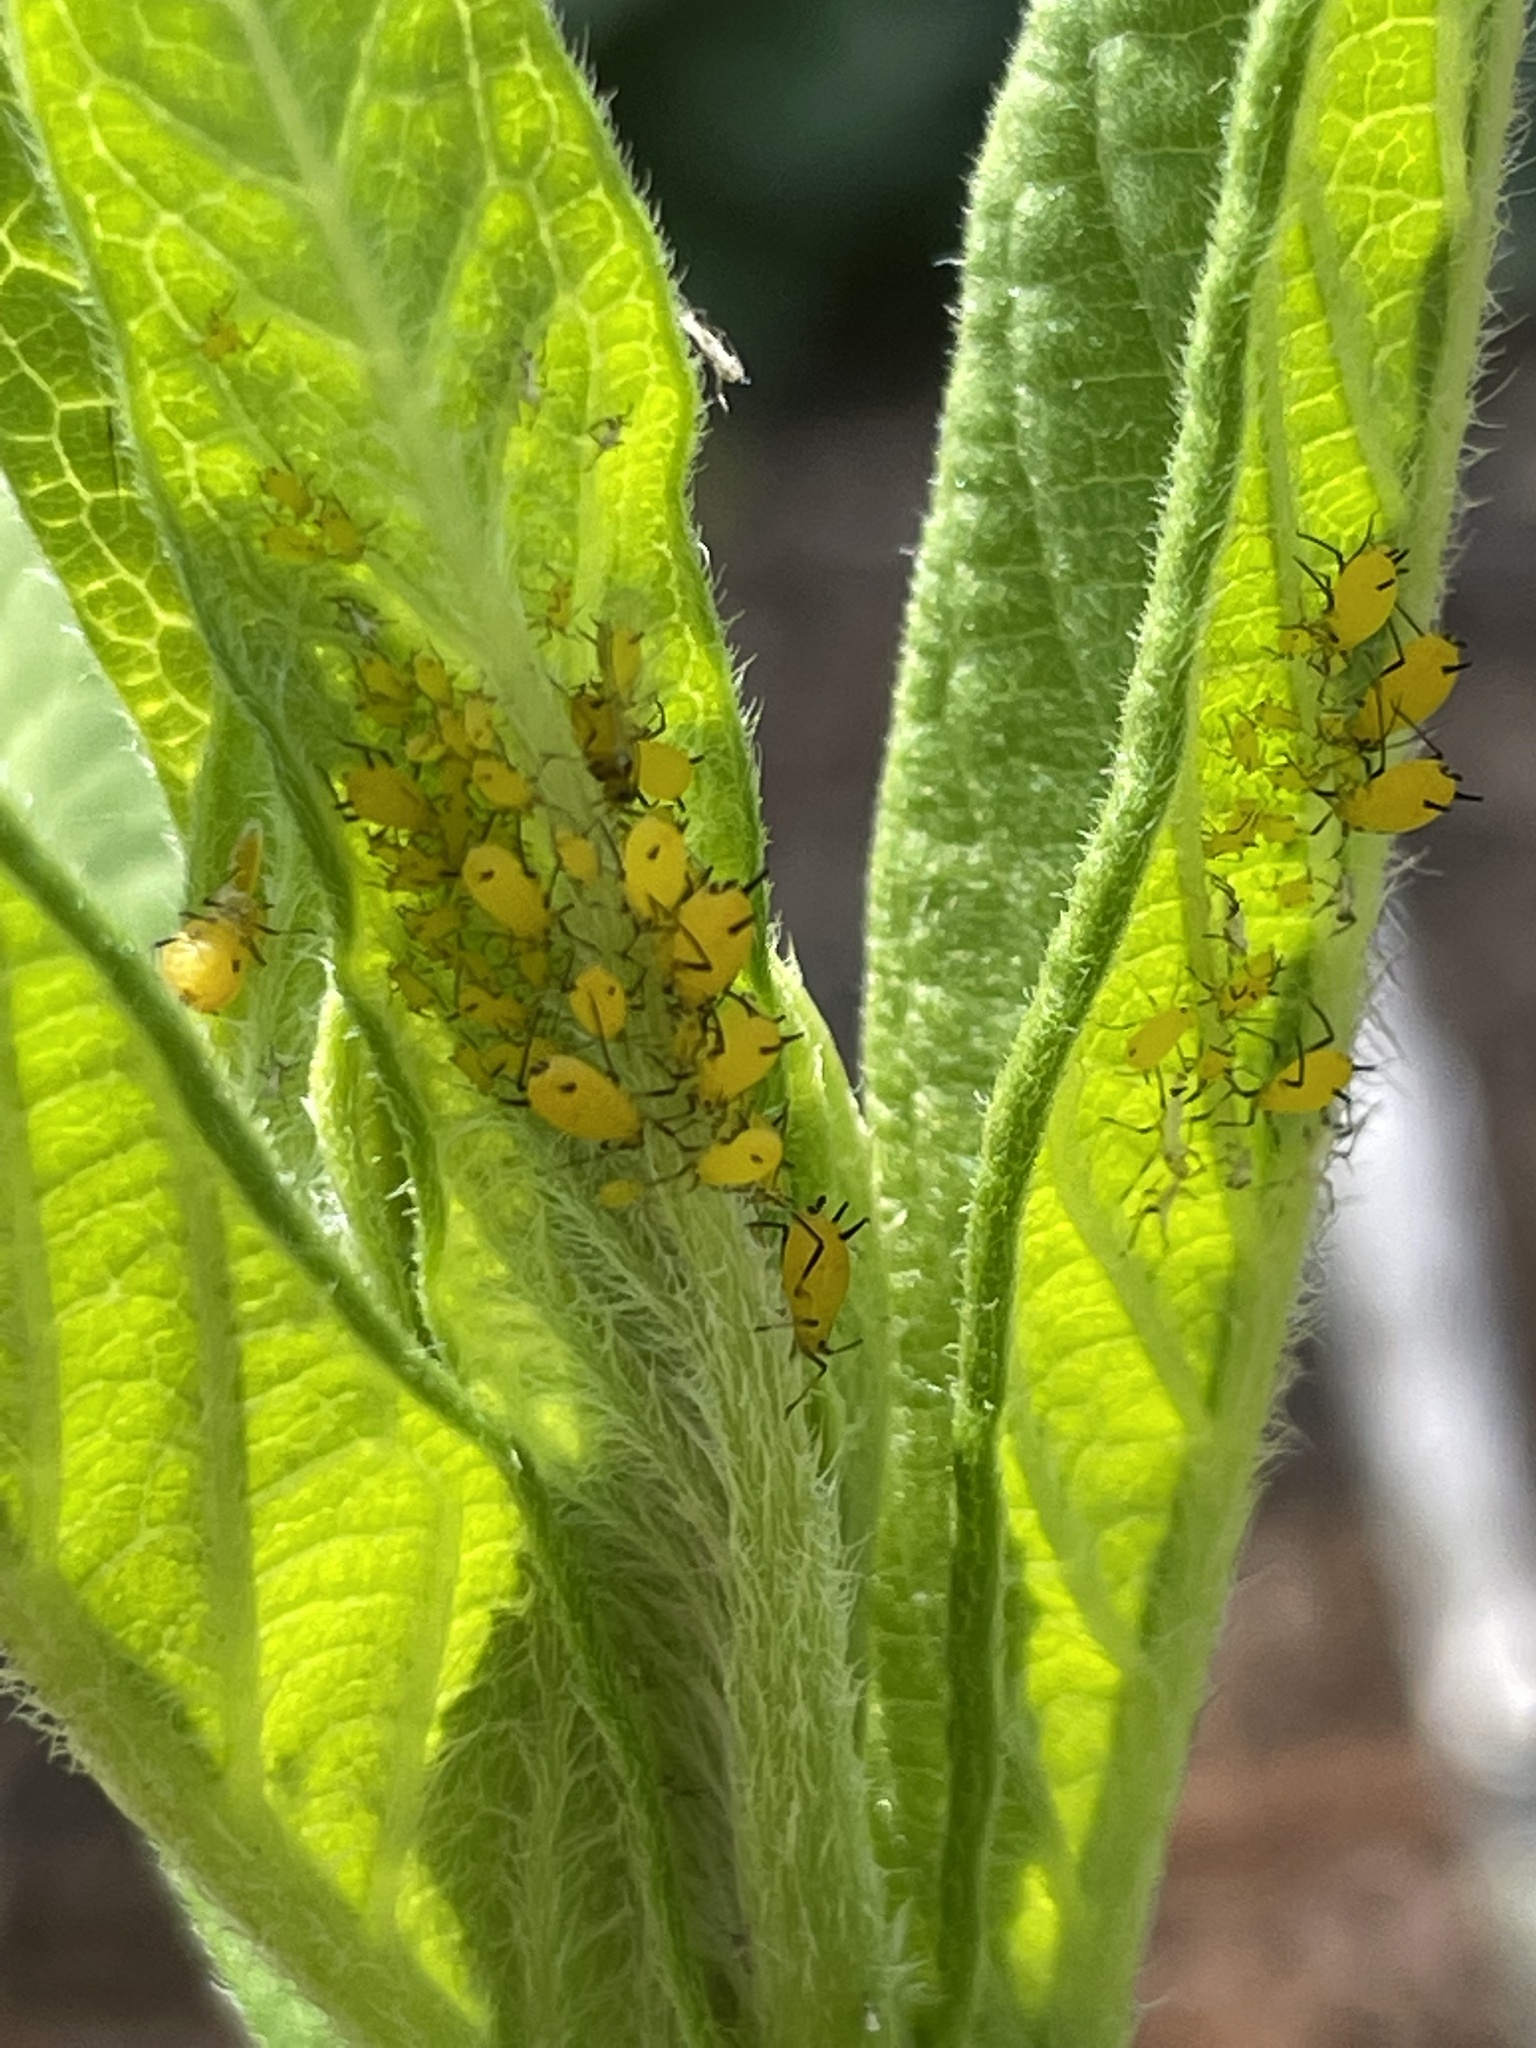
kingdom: Animalia
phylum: Arthropoda
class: Insecta
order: Hemiptera
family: Aphididae
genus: Aphis
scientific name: Aphis nerii
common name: Oleander aphid
